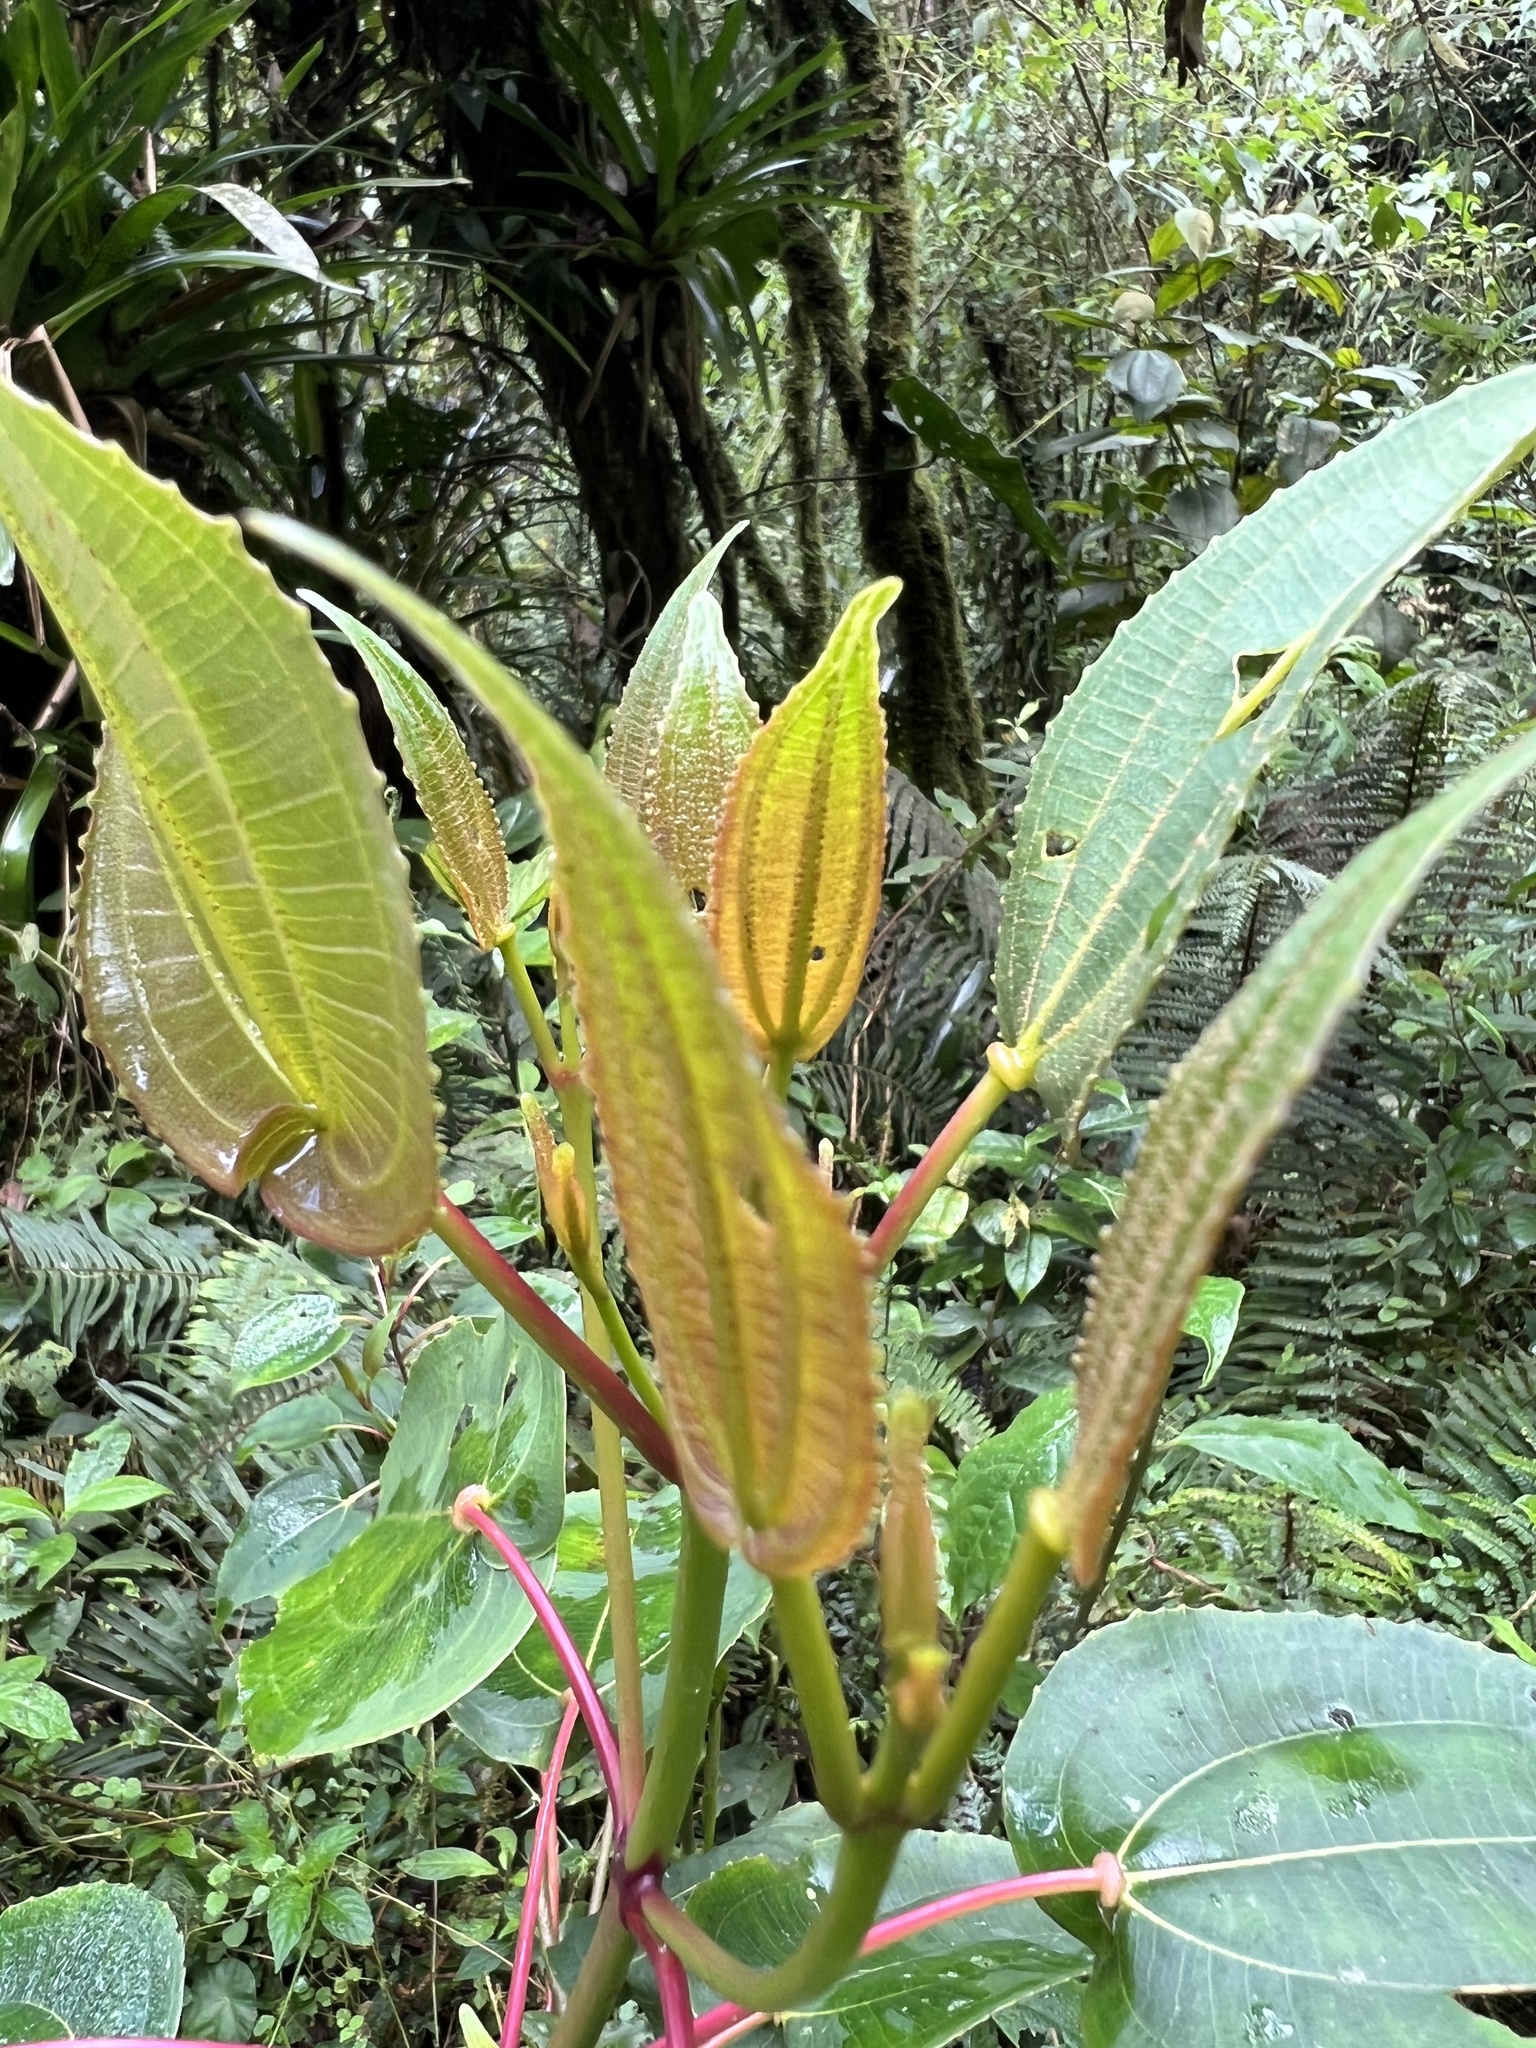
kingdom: Plantae
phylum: Tracheophyta
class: Magnoliopsida
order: Myrtales
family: Melastomataceae
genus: Axinaea
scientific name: Axinaea scutigera
